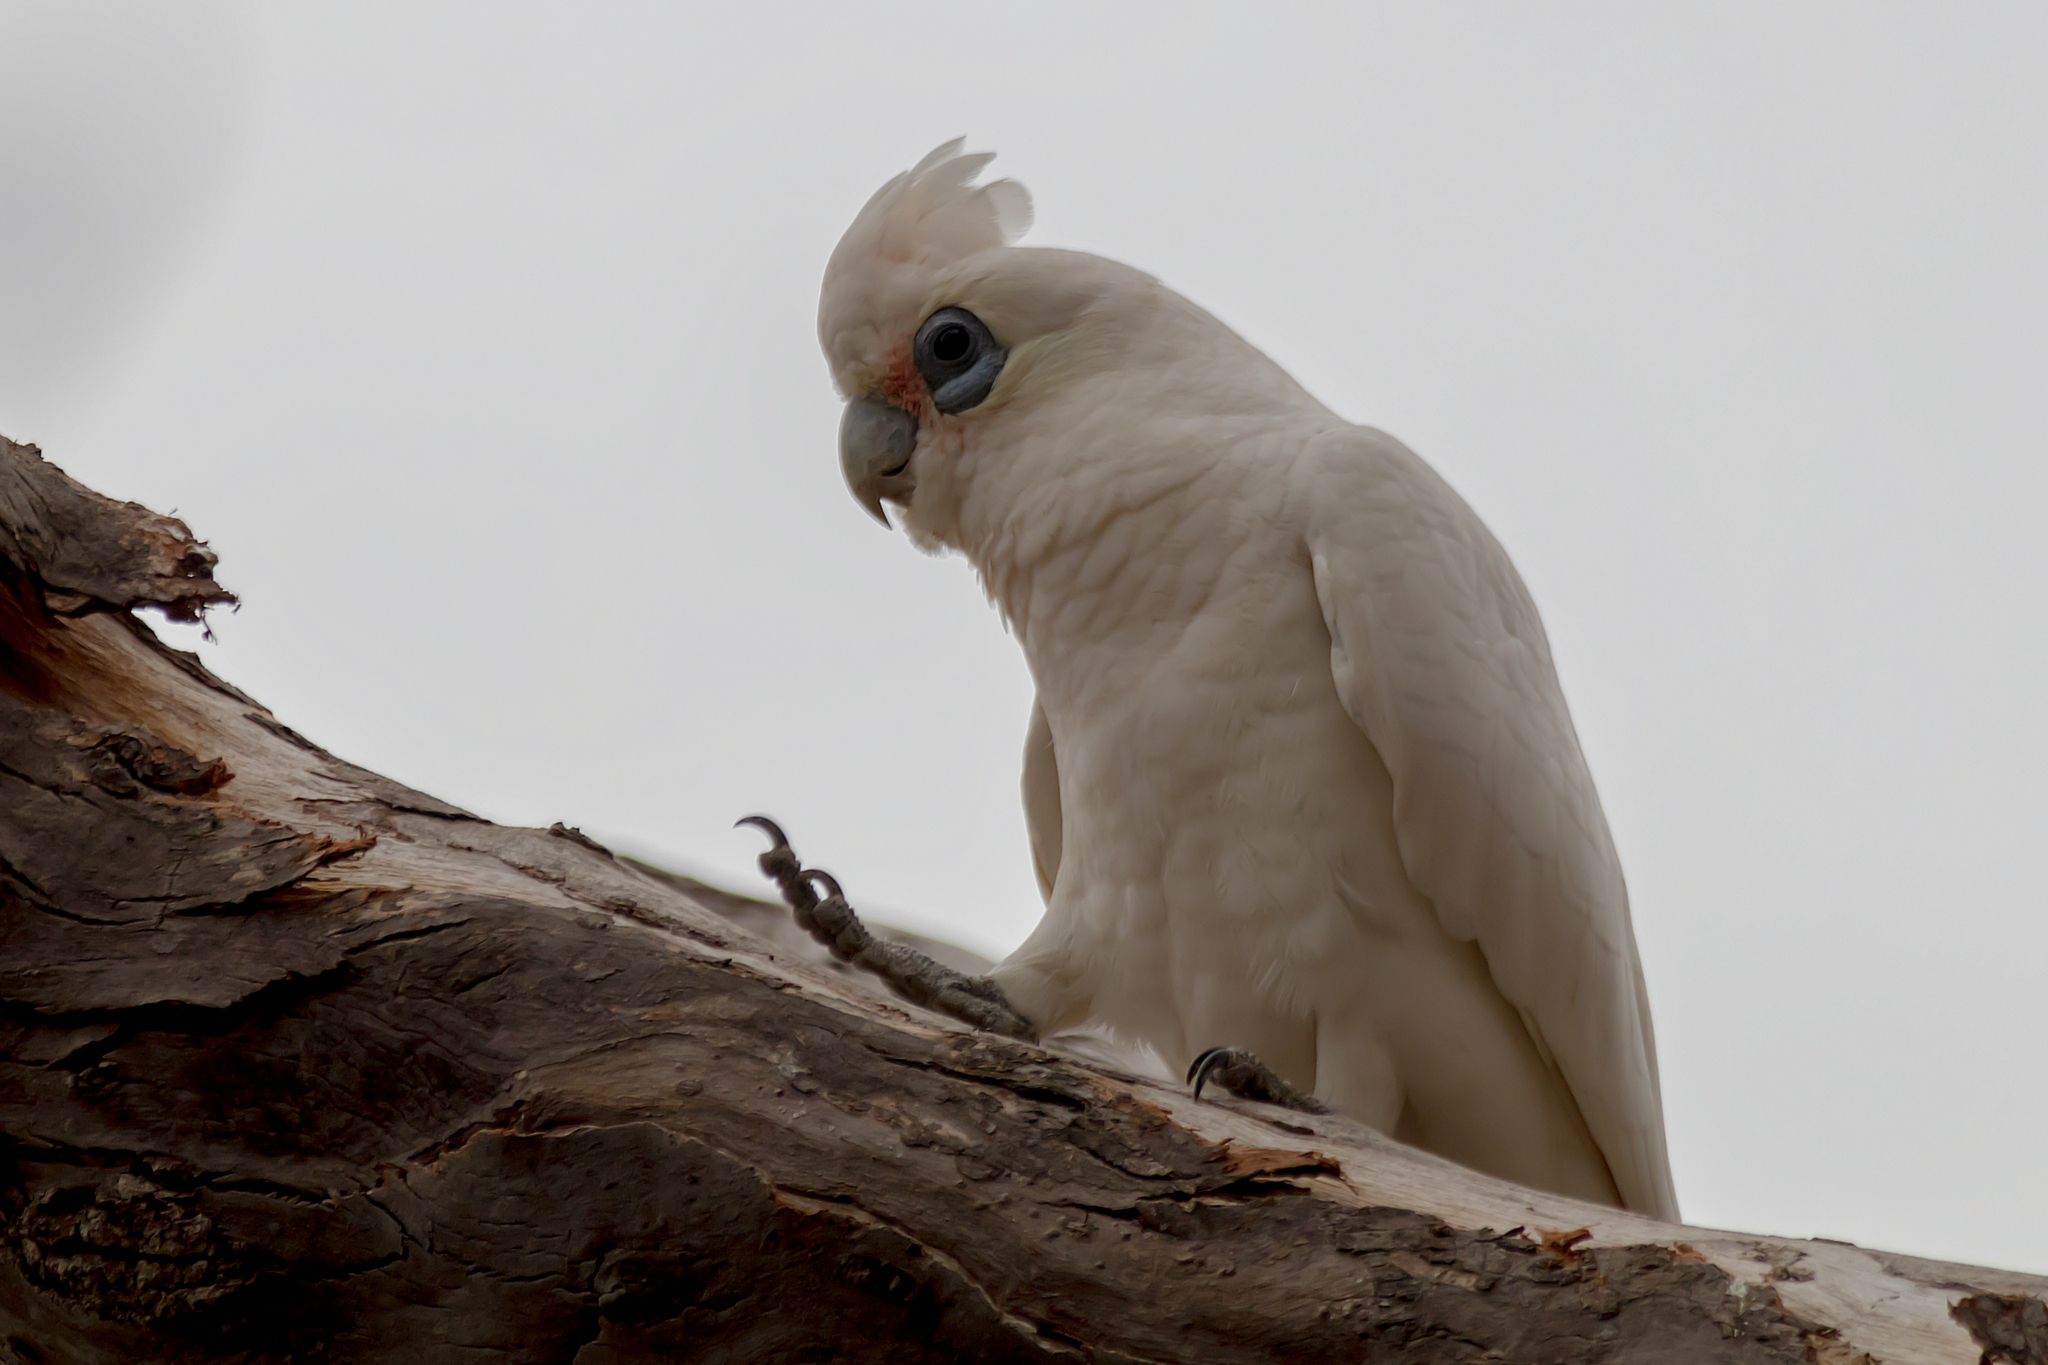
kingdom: Animalia
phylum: Chordata
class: Aves
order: Psittaciformes
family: Psittacidae
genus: Cacatua
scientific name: Cacatua sanguinea
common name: Little corella
